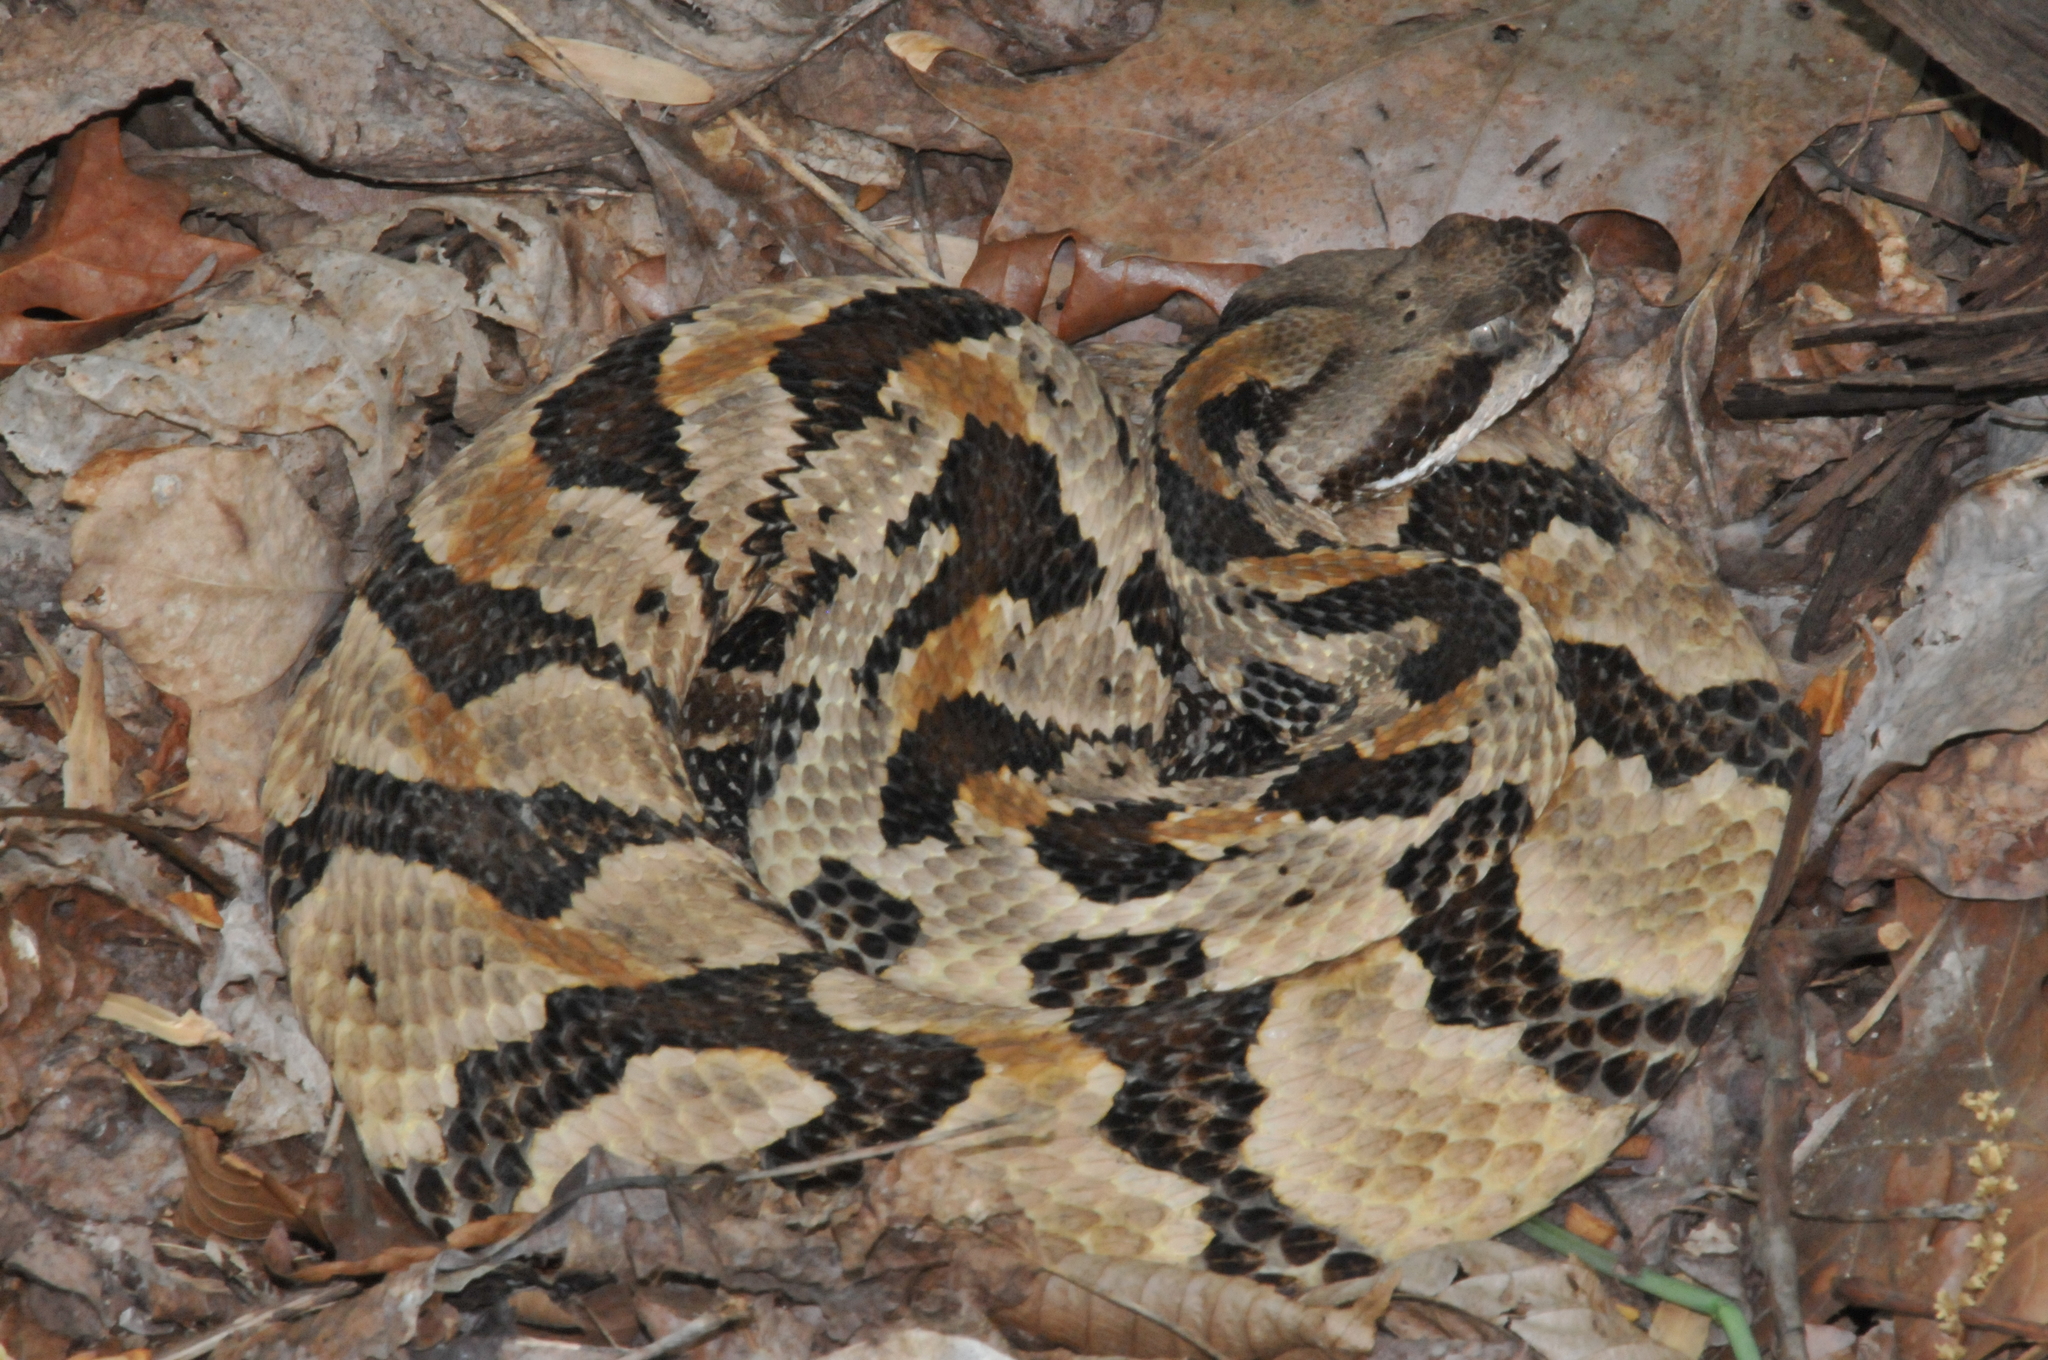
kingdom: Animalia
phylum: Chordata
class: Squamata
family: Viperidae
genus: Crotalus
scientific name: Crotalus horridus
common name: Timber rattlesnake
